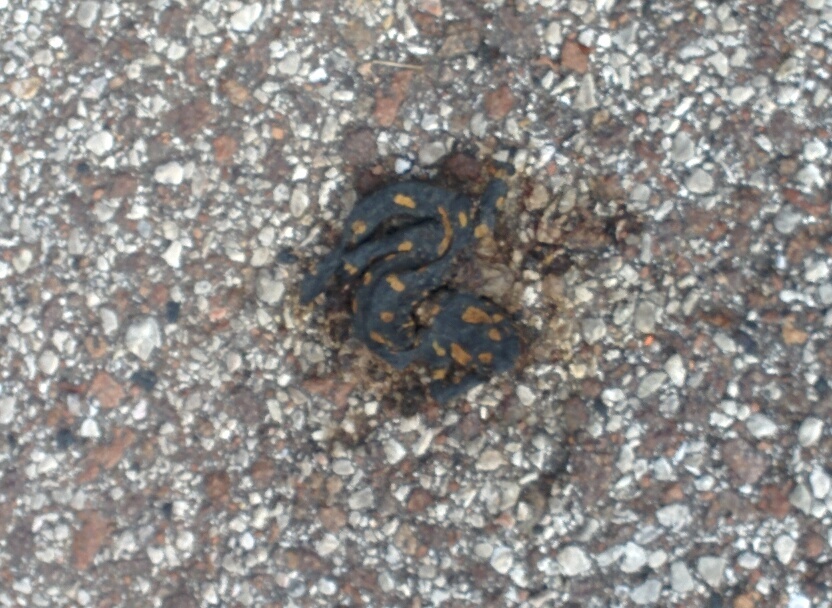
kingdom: Animalia
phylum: Chordata
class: Amphibia
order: Caudata
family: Salamandridae
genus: Salamandra
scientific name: Salamandra salamandra
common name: Fire salamander
